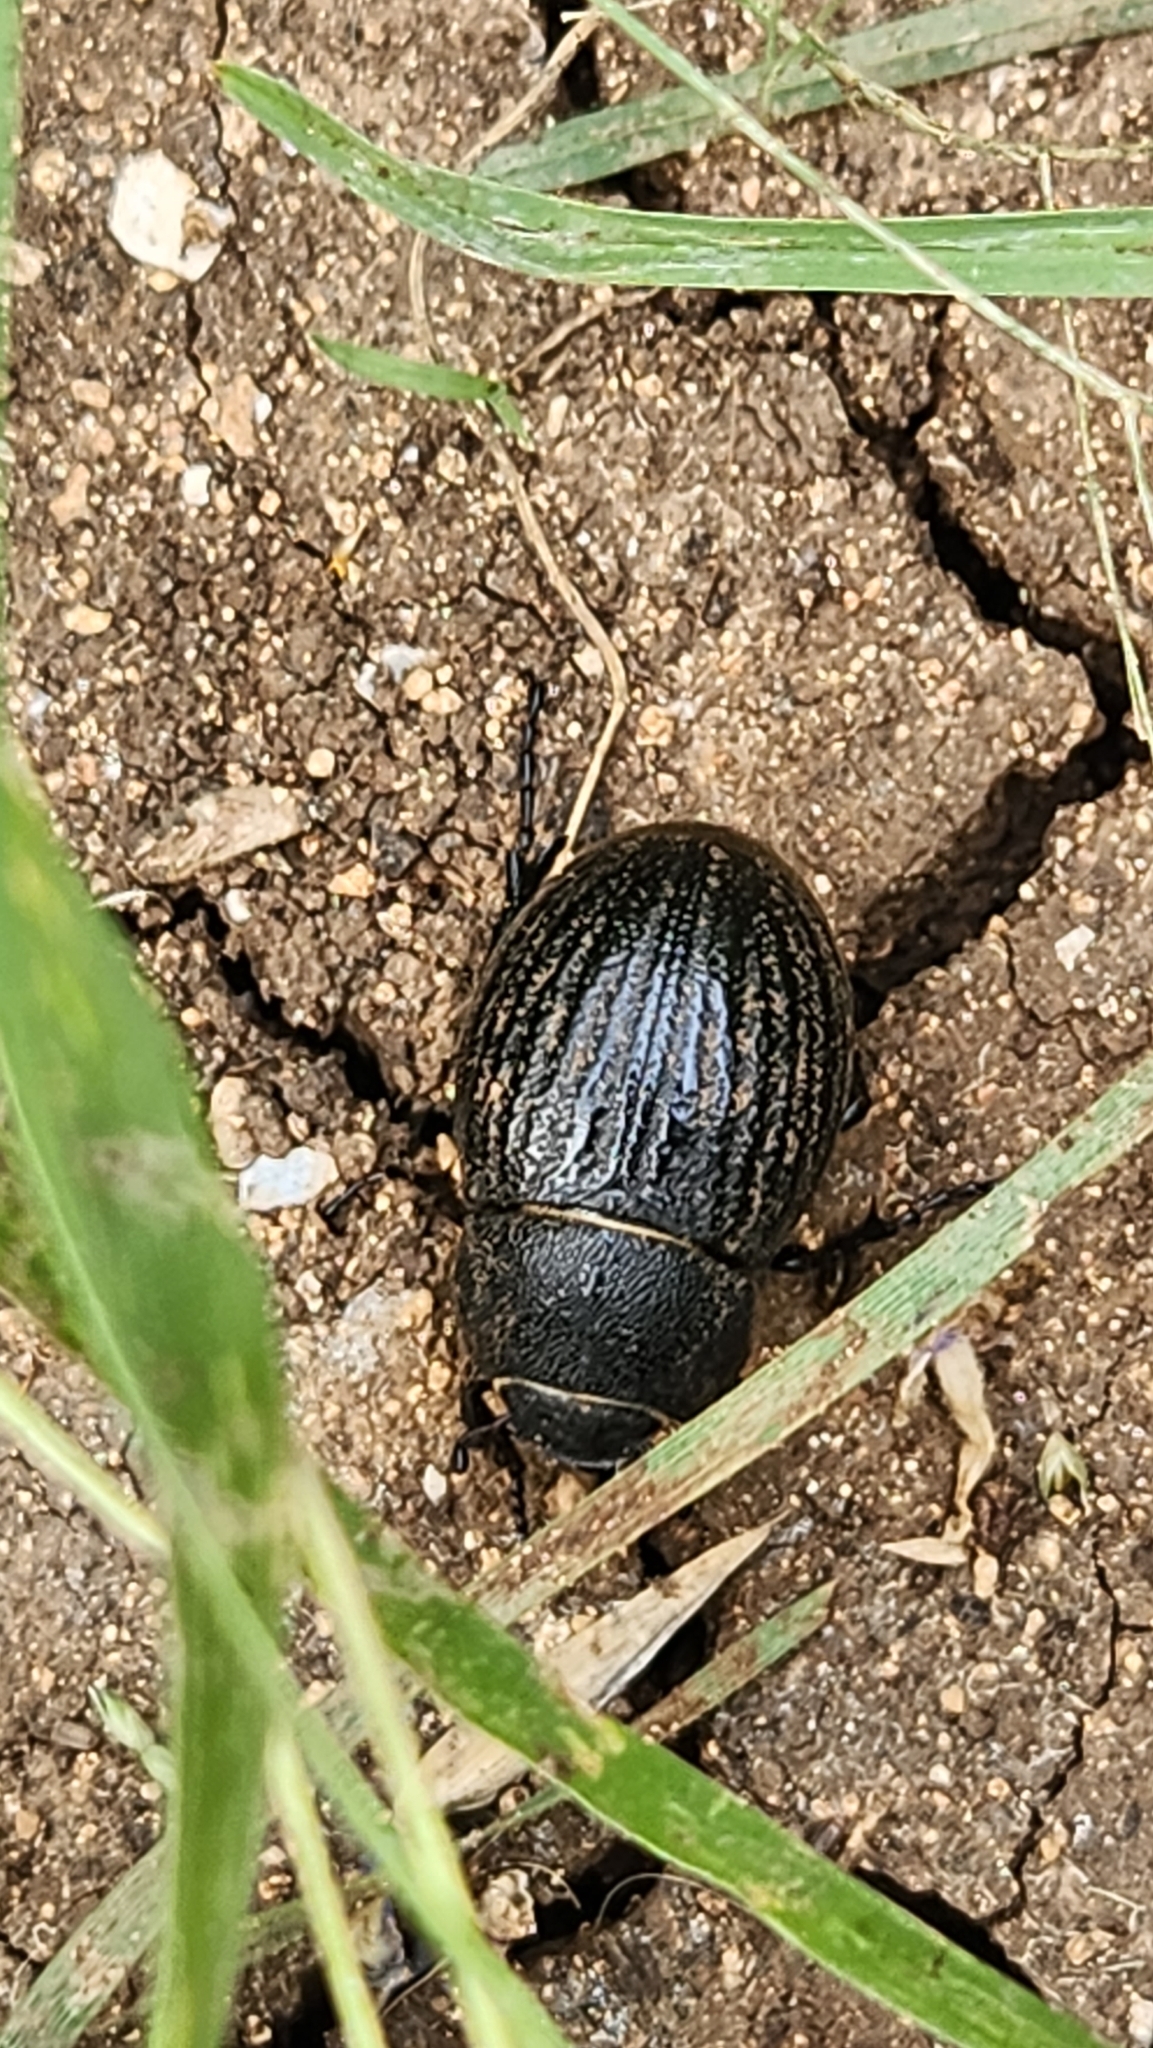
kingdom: Animalia
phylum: Arthropoda
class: Insecta
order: Coleoptera
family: Scarabaeidae
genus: Phyllophaga
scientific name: Phyllophaga cribrosa
